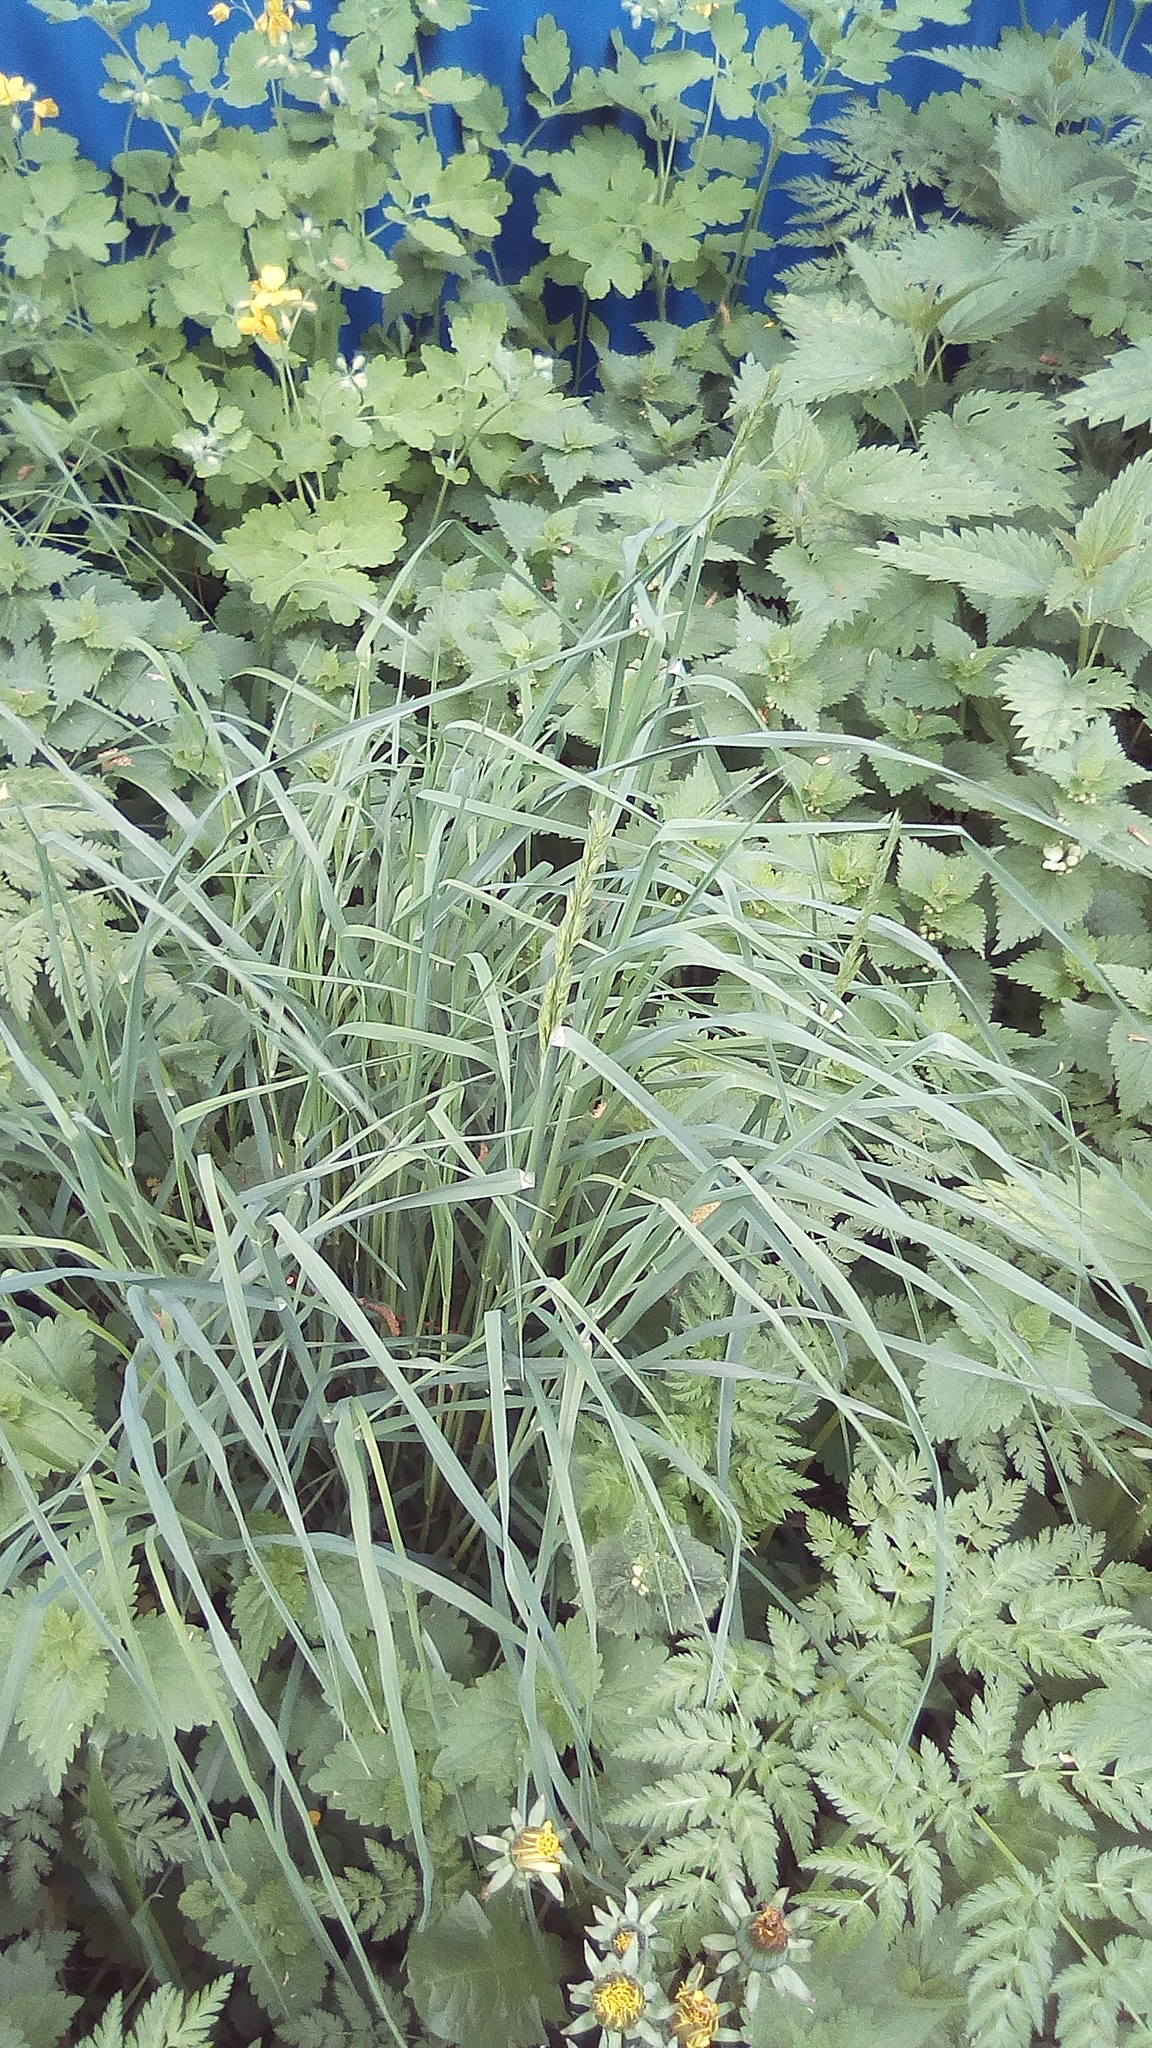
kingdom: Plantae
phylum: Tracheophyta
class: Liliopsida
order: Poales
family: Poaceae
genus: Dactylis
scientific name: Dactylis glomerata
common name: Orchardgrass
